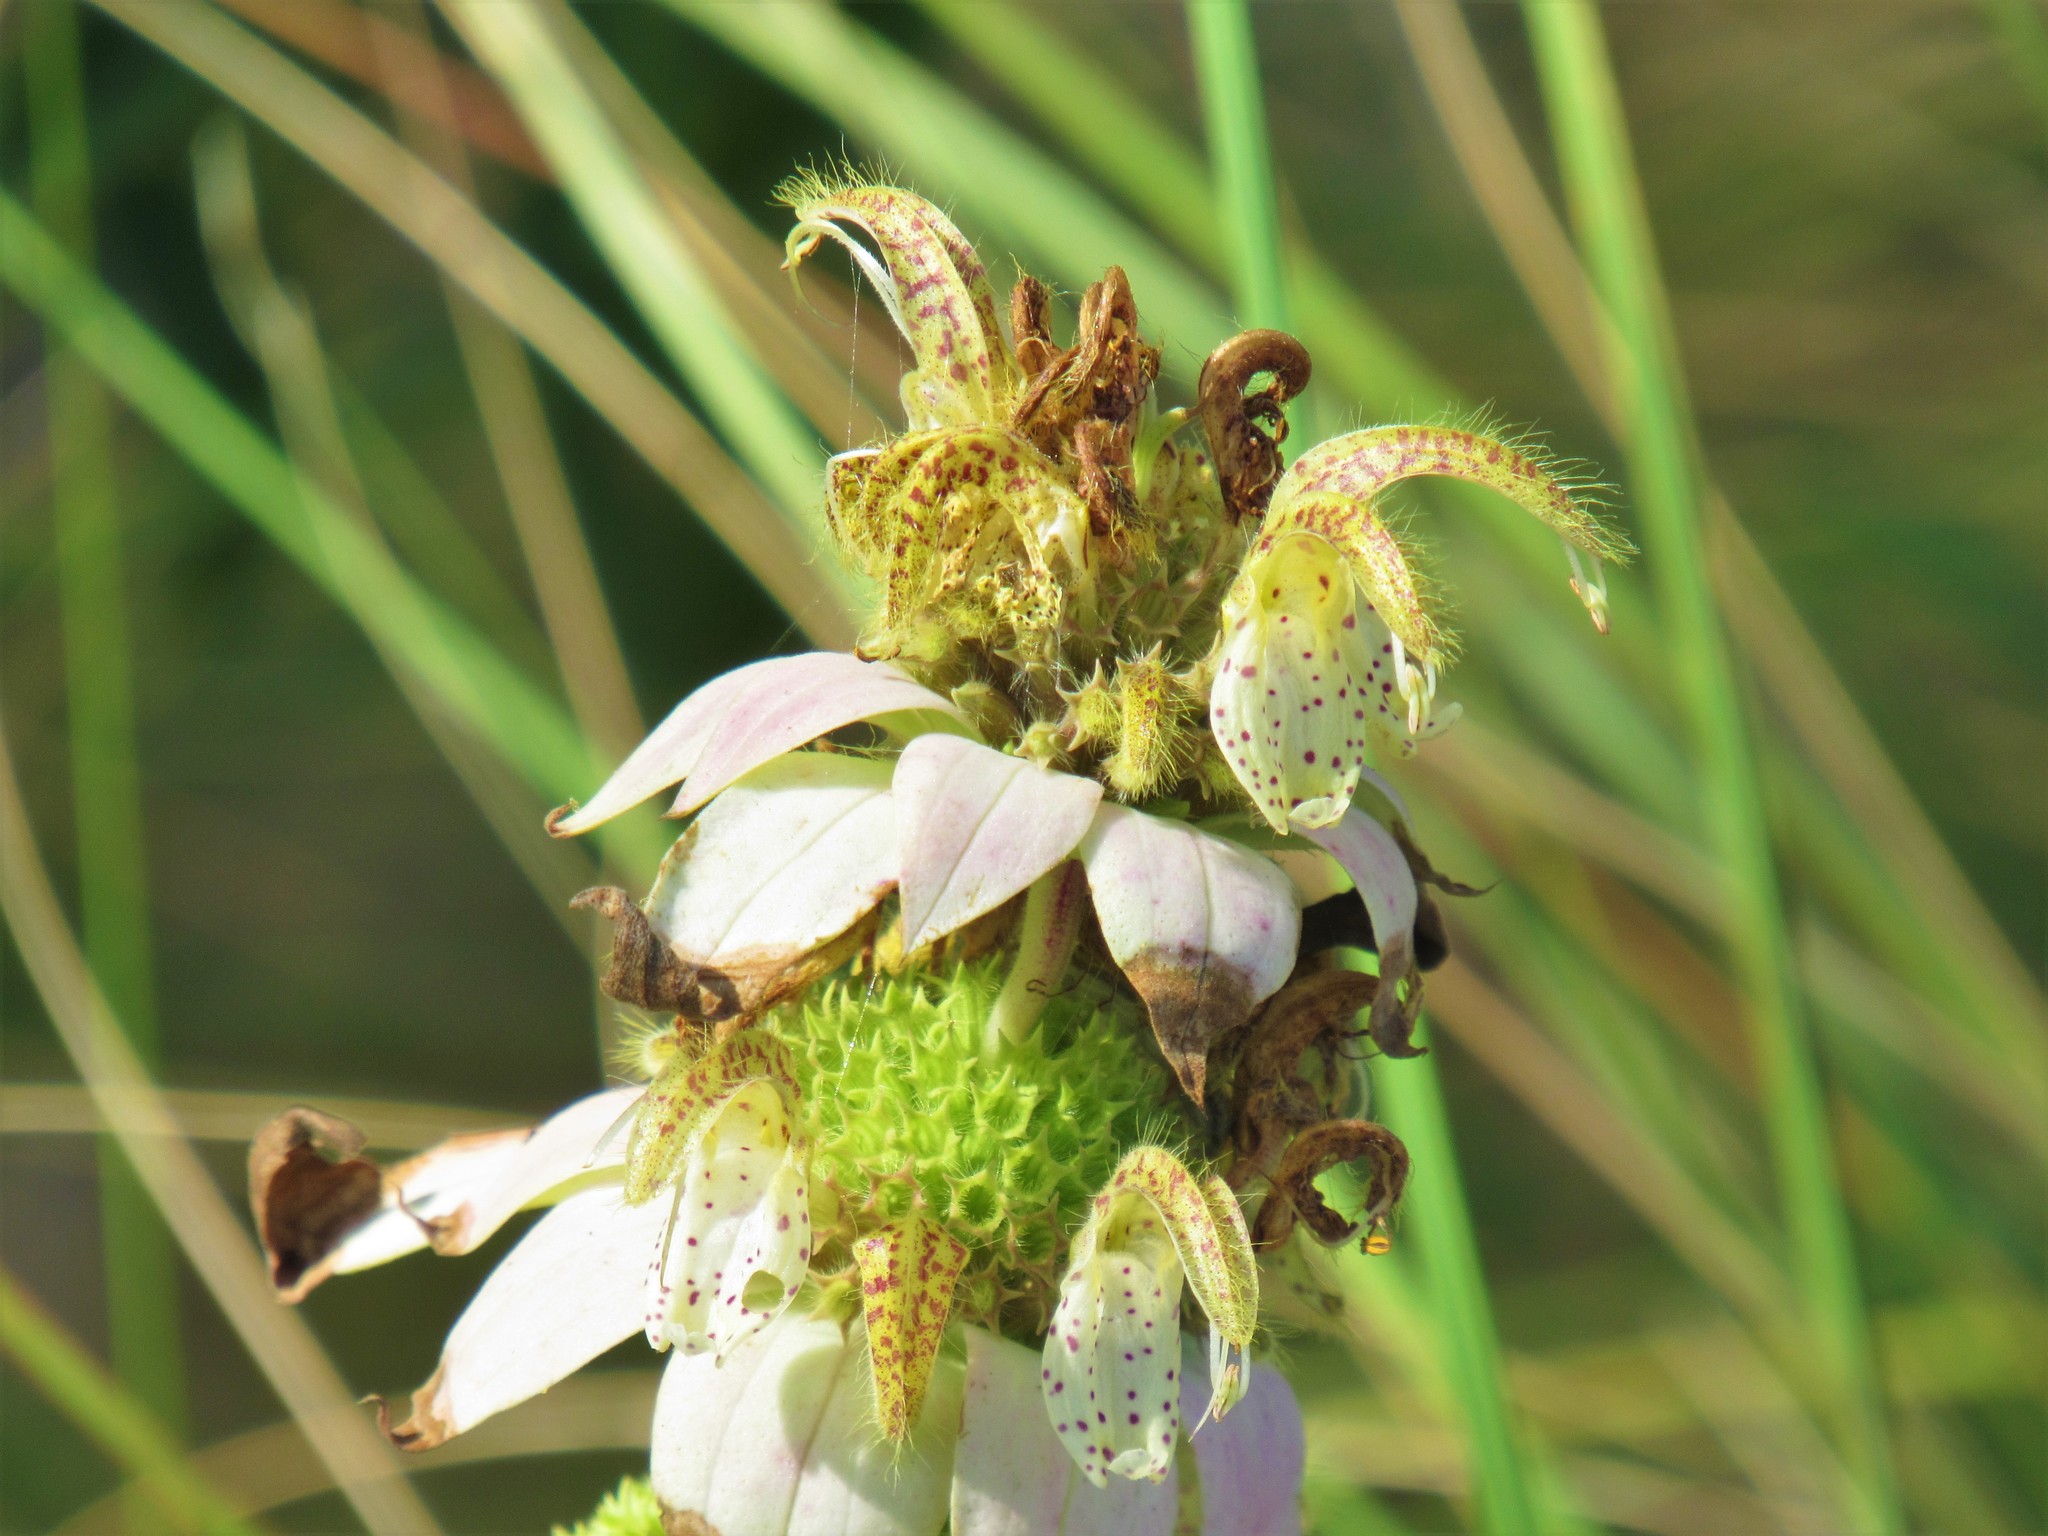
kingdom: Plantae
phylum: Tracheophyta
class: Magnoliopsida
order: Lamiales
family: Lamiaceae
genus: Monarda
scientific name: Monarda punctata
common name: Dotted monarda
